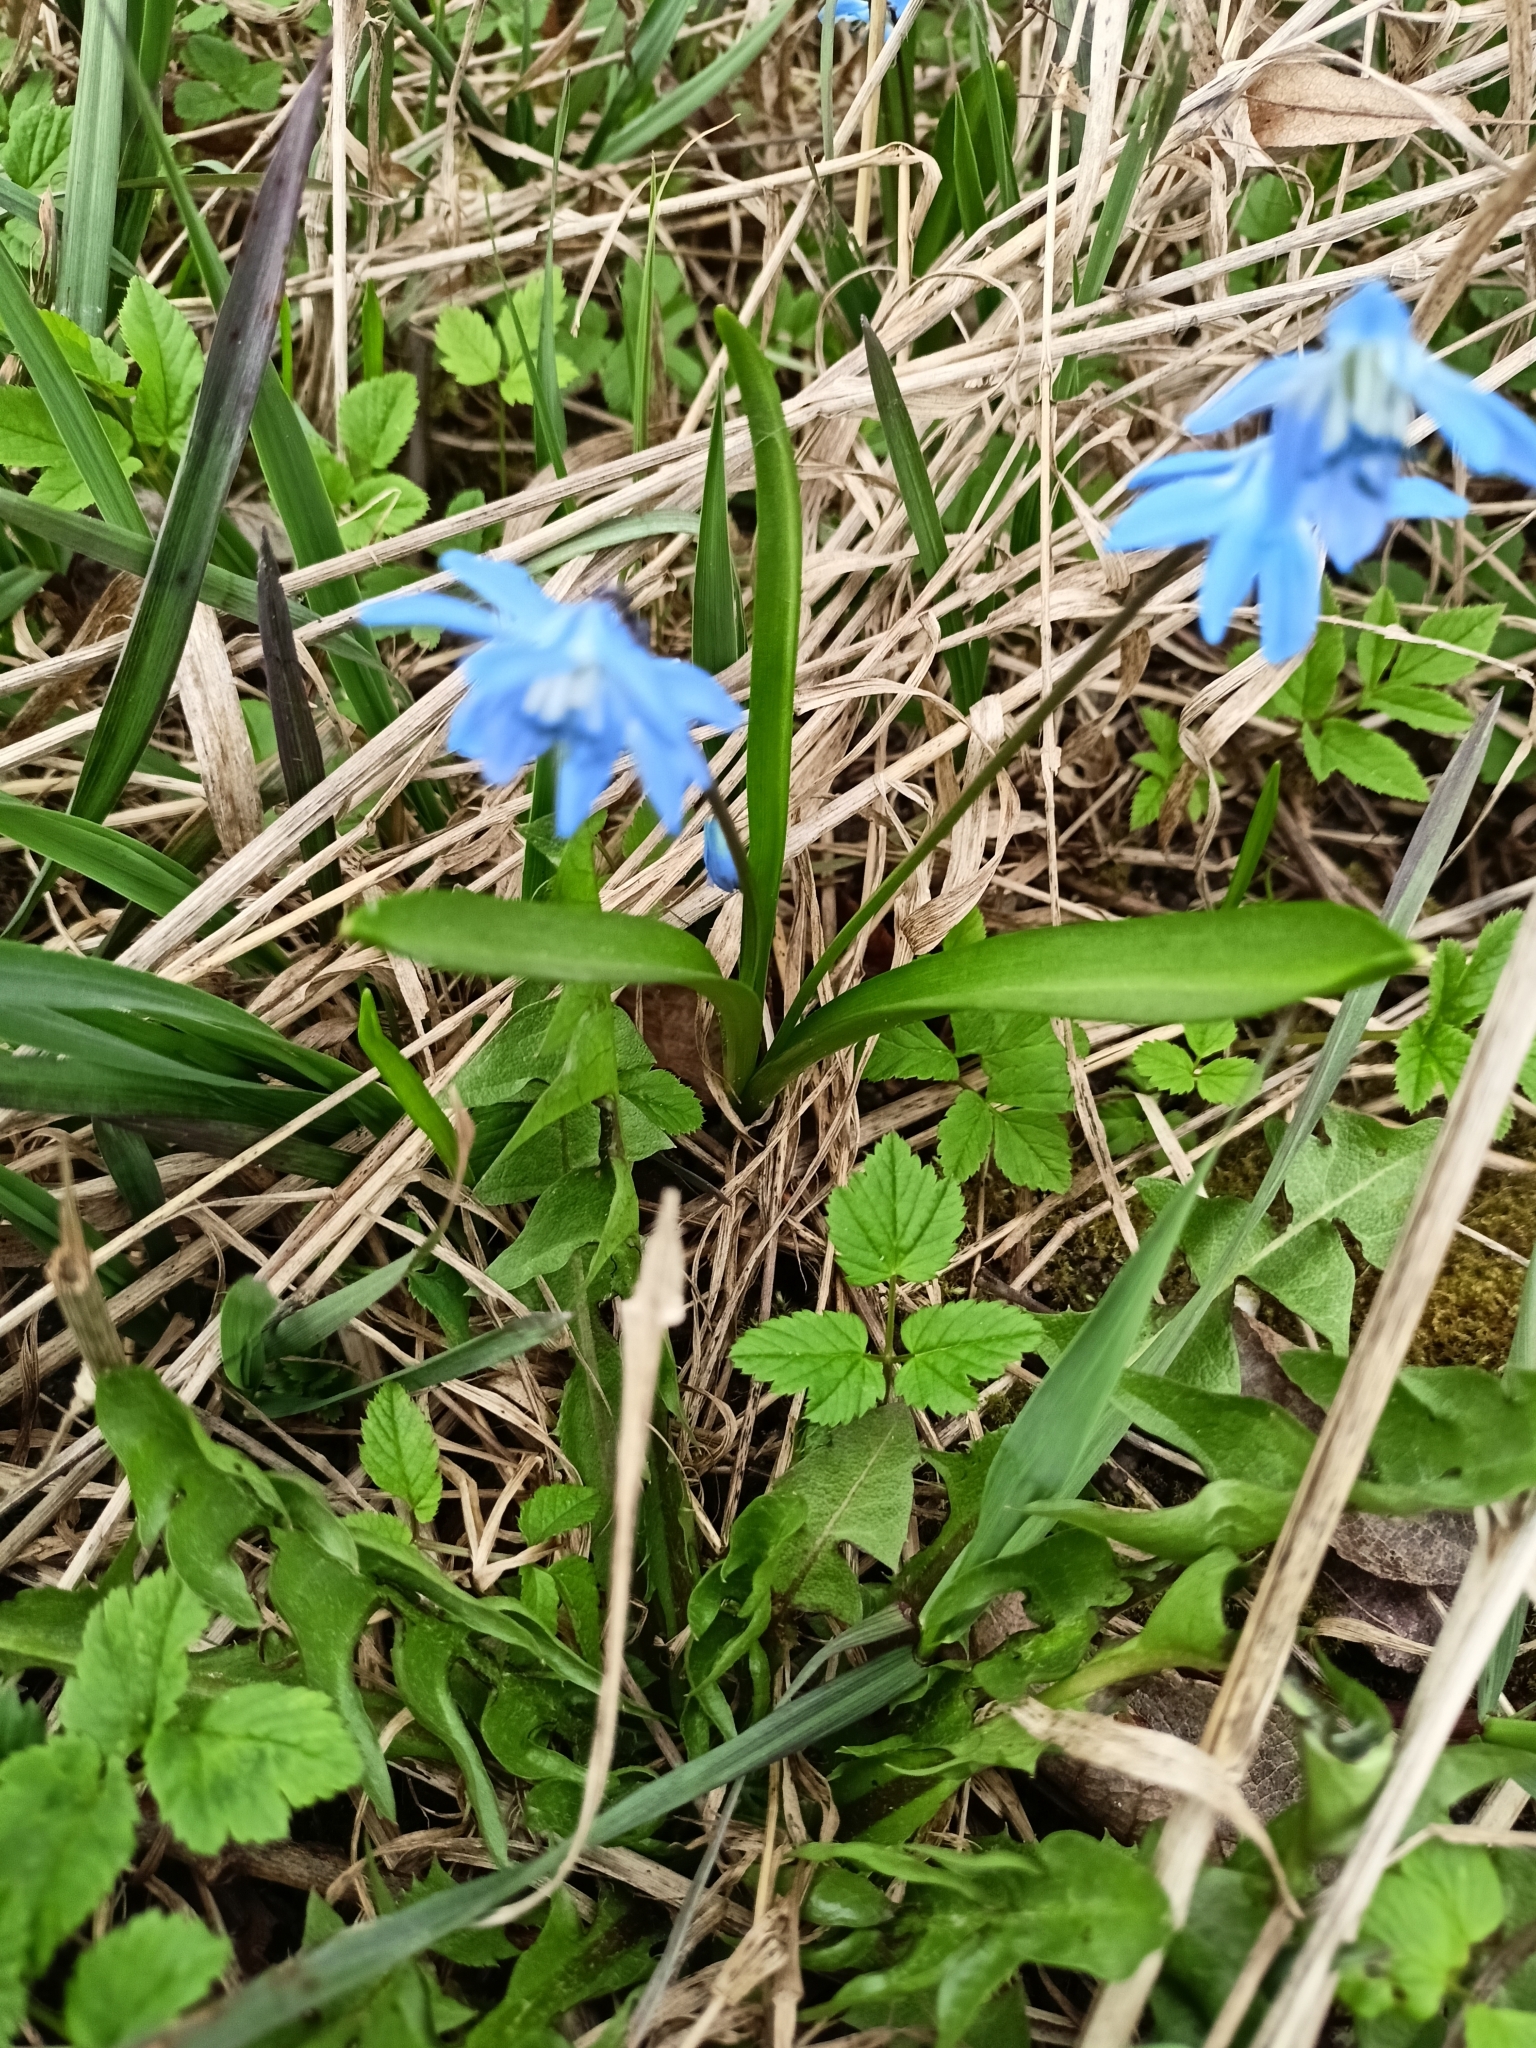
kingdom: Plantae
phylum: Tracheophyta
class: Liliopsida
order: Asparagales
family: Asparagaceae
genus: Scilla
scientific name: Scilla siberica
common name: Siberian squill
